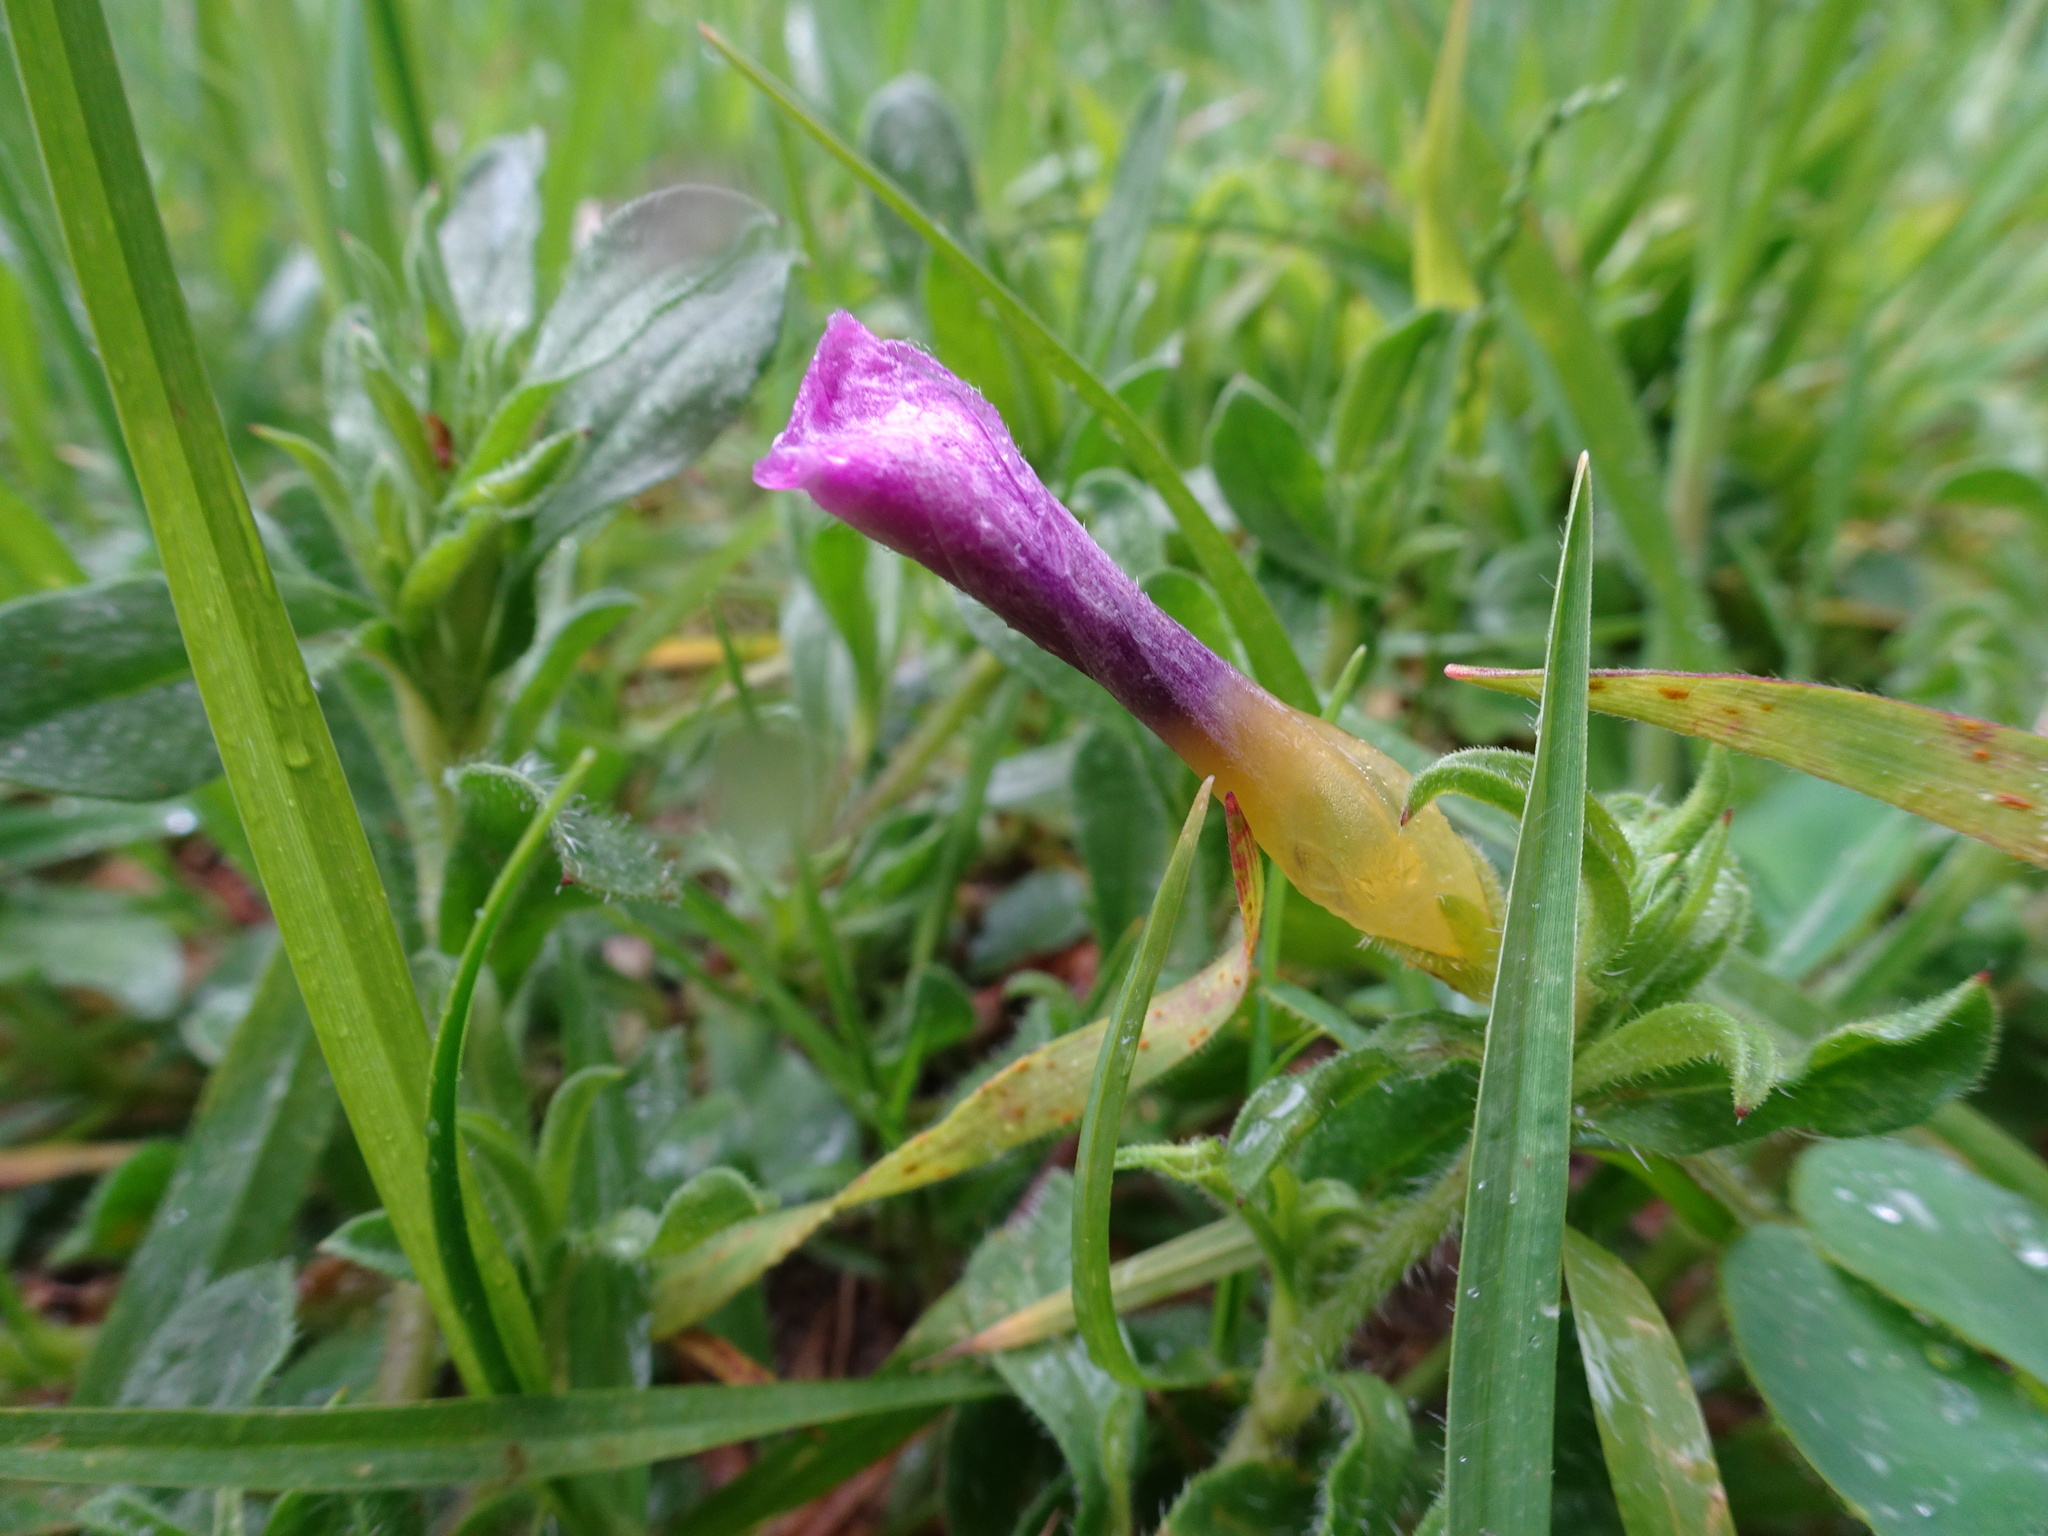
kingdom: Plantae
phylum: Tracheophyta
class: Magnoliopsida
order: Oxalidales
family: Oxalidaceae
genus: Oxalis
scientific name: Oxalis purpurea
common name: Purple woodsorrel
